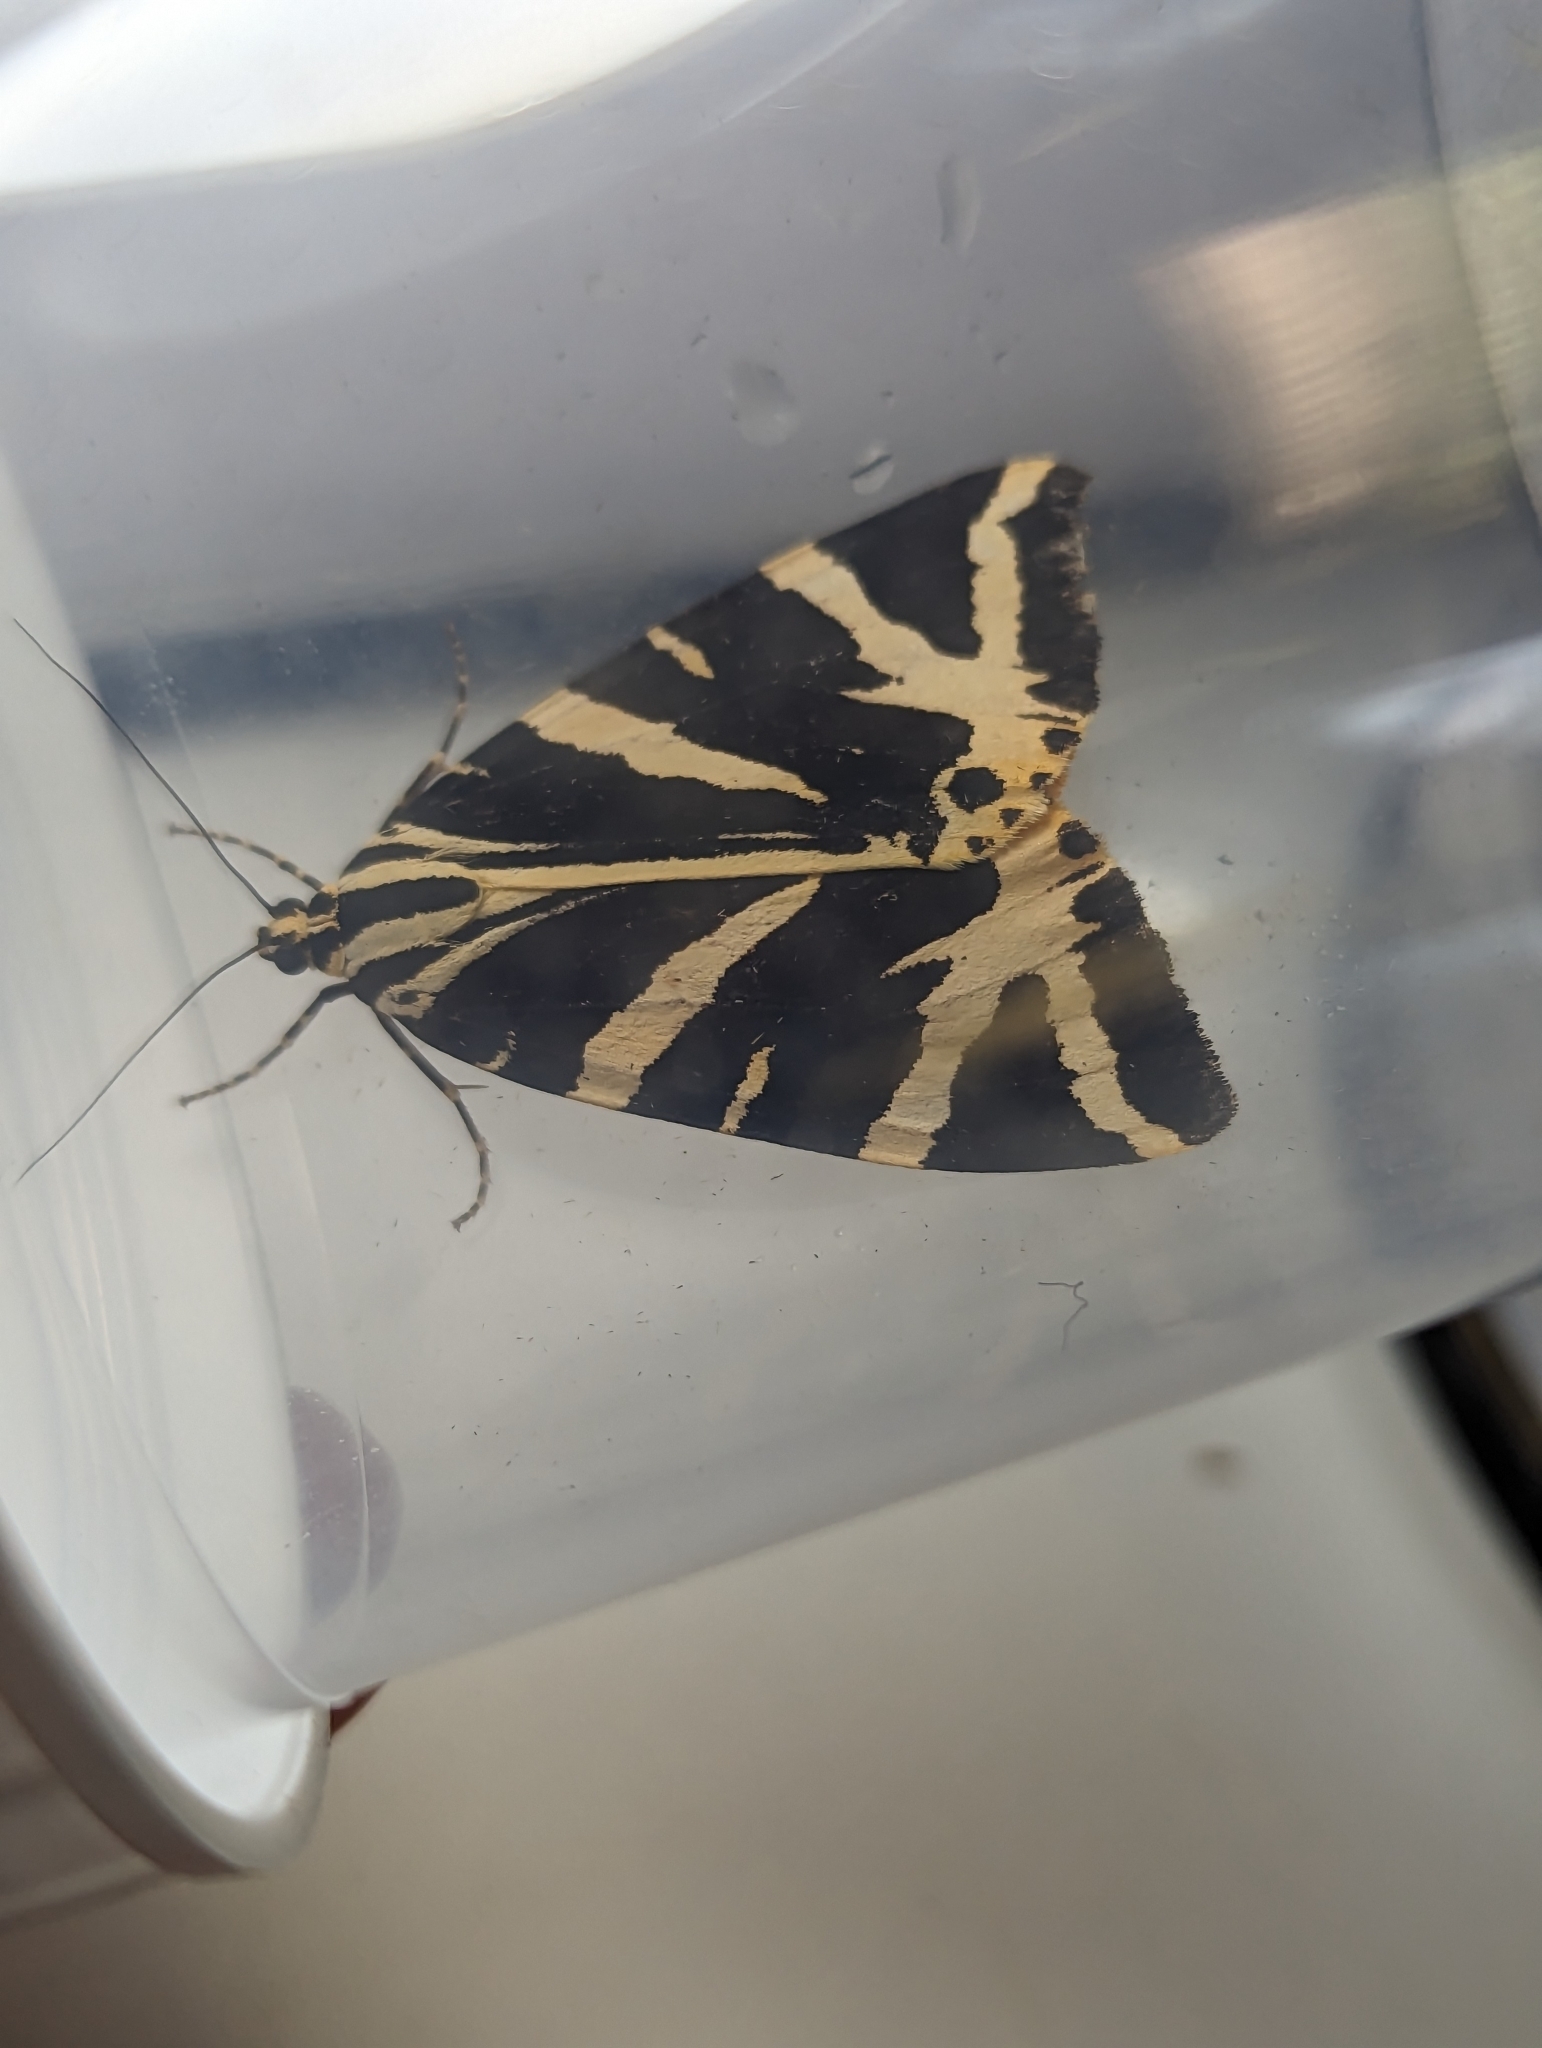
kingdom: Animalia
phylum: Arthropoda
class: Insecta
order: Lepidoptera
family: Erebidae
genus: Euplagia
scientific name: Euplagia quadripunctaria
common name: Jersey tiger
